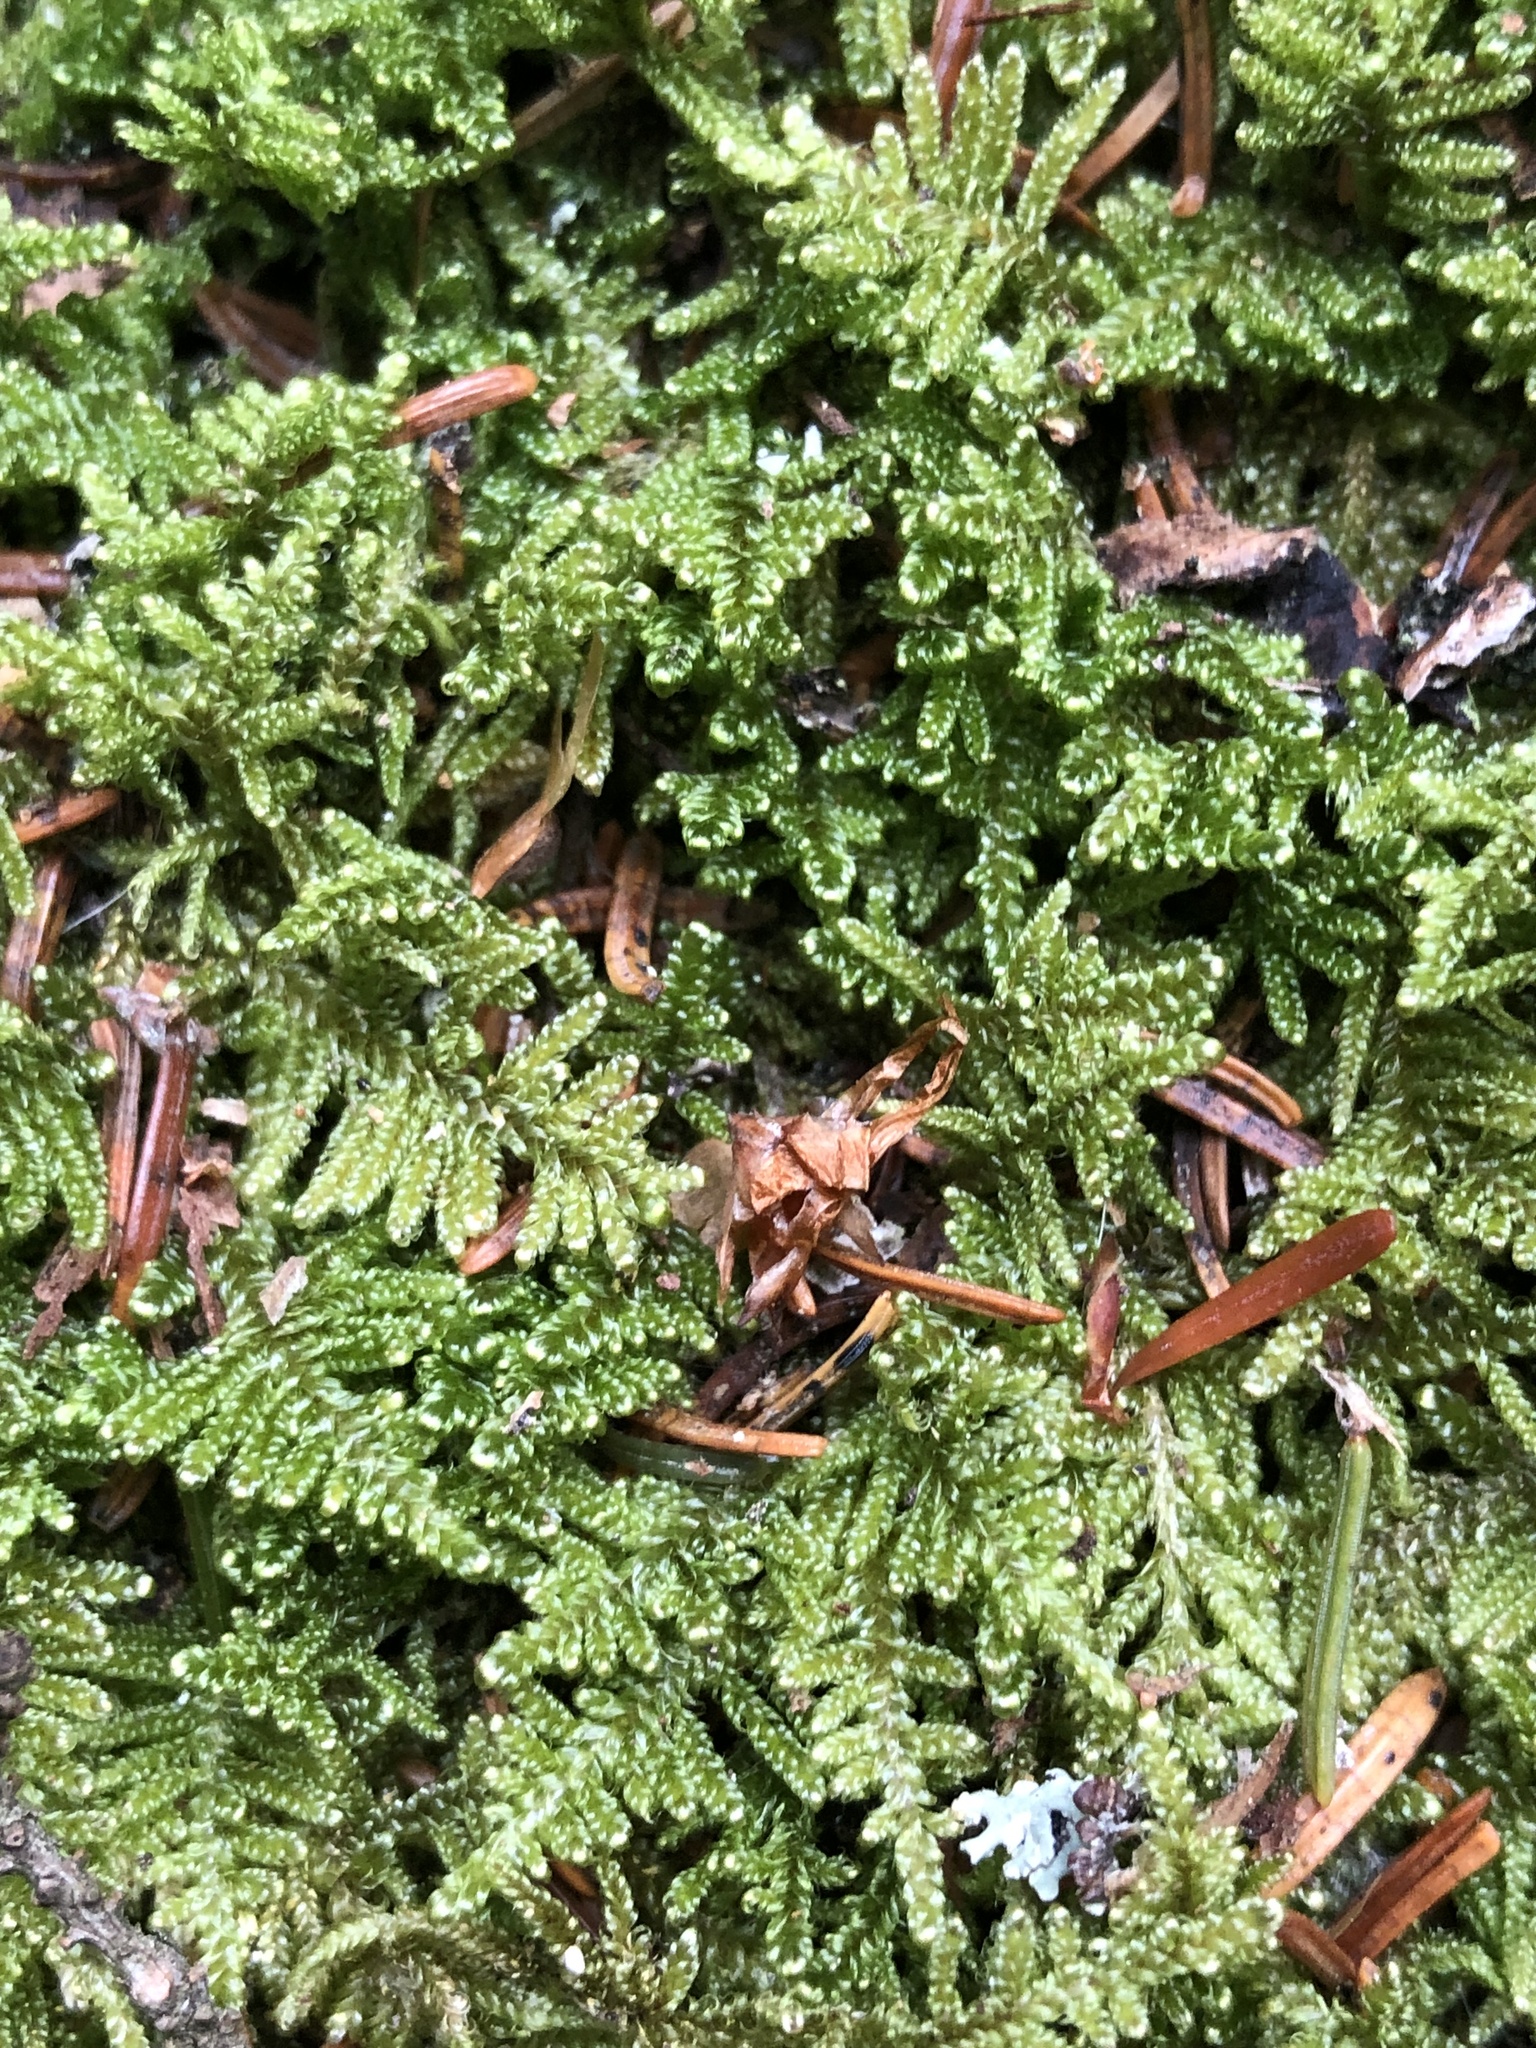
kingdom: Plantae
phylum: Bryophyta
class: Bryopsida
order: Hypnales
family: Callicladiaceae
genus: Callicladium
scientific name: Callicladium imponens
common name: Brocade moss
